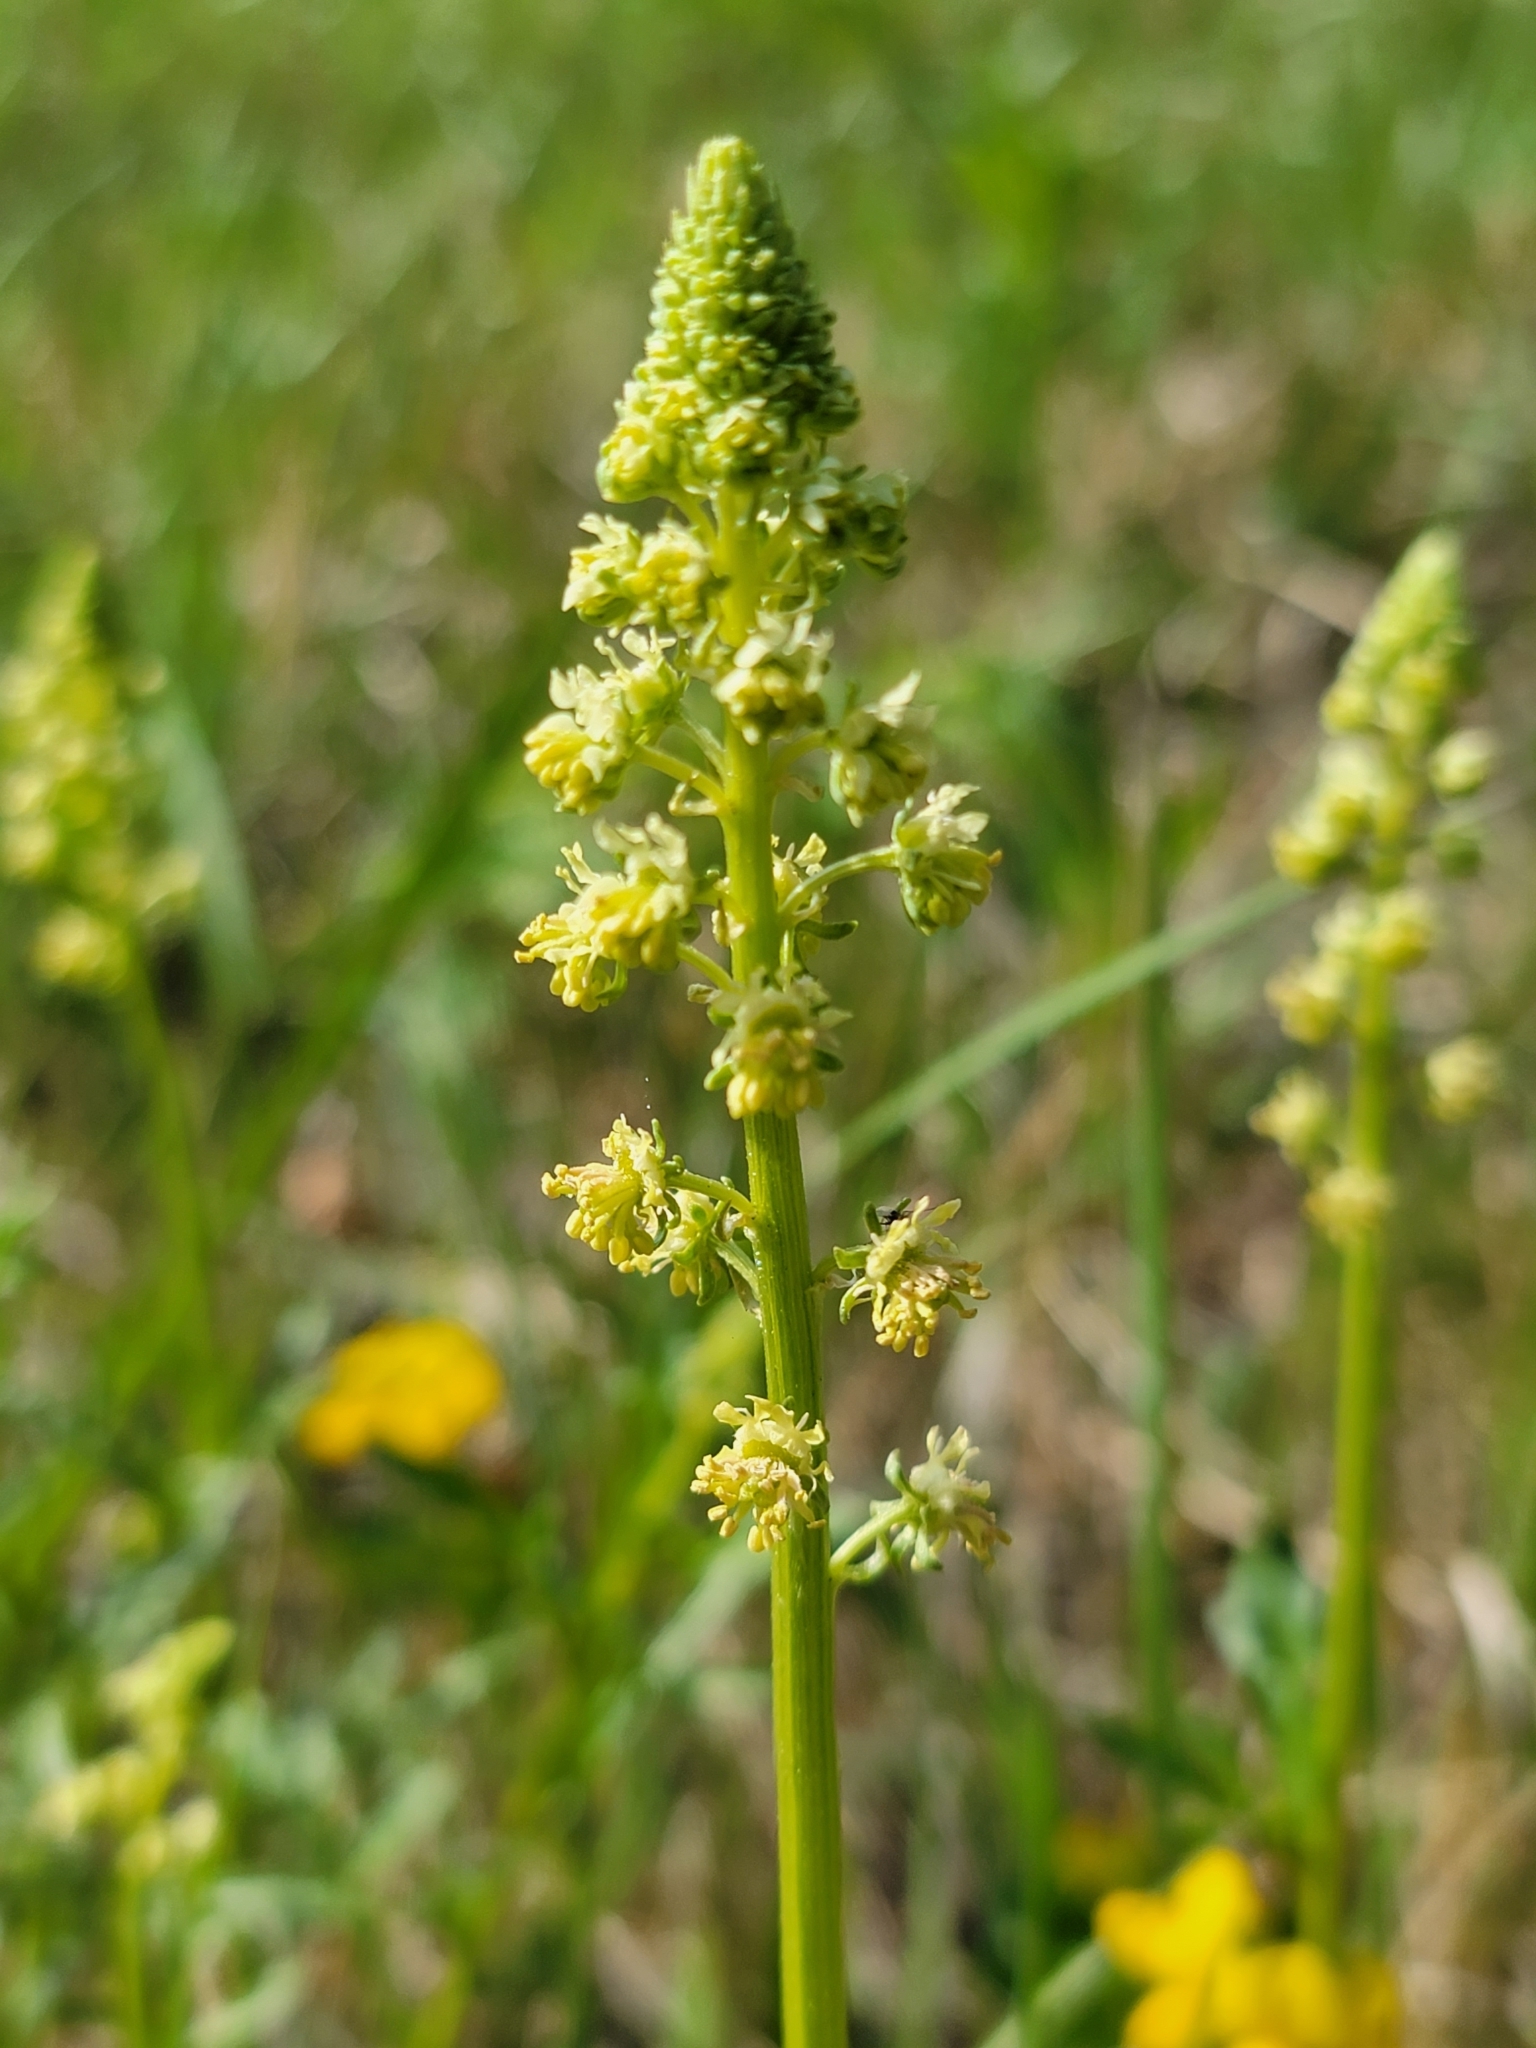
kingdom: Plantae
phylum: Tracheophyta
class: Magnoliopsida
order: Brassicales
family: Resedaceae
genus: Reseda
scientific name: Reseda lutea
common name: Wild mignonette
